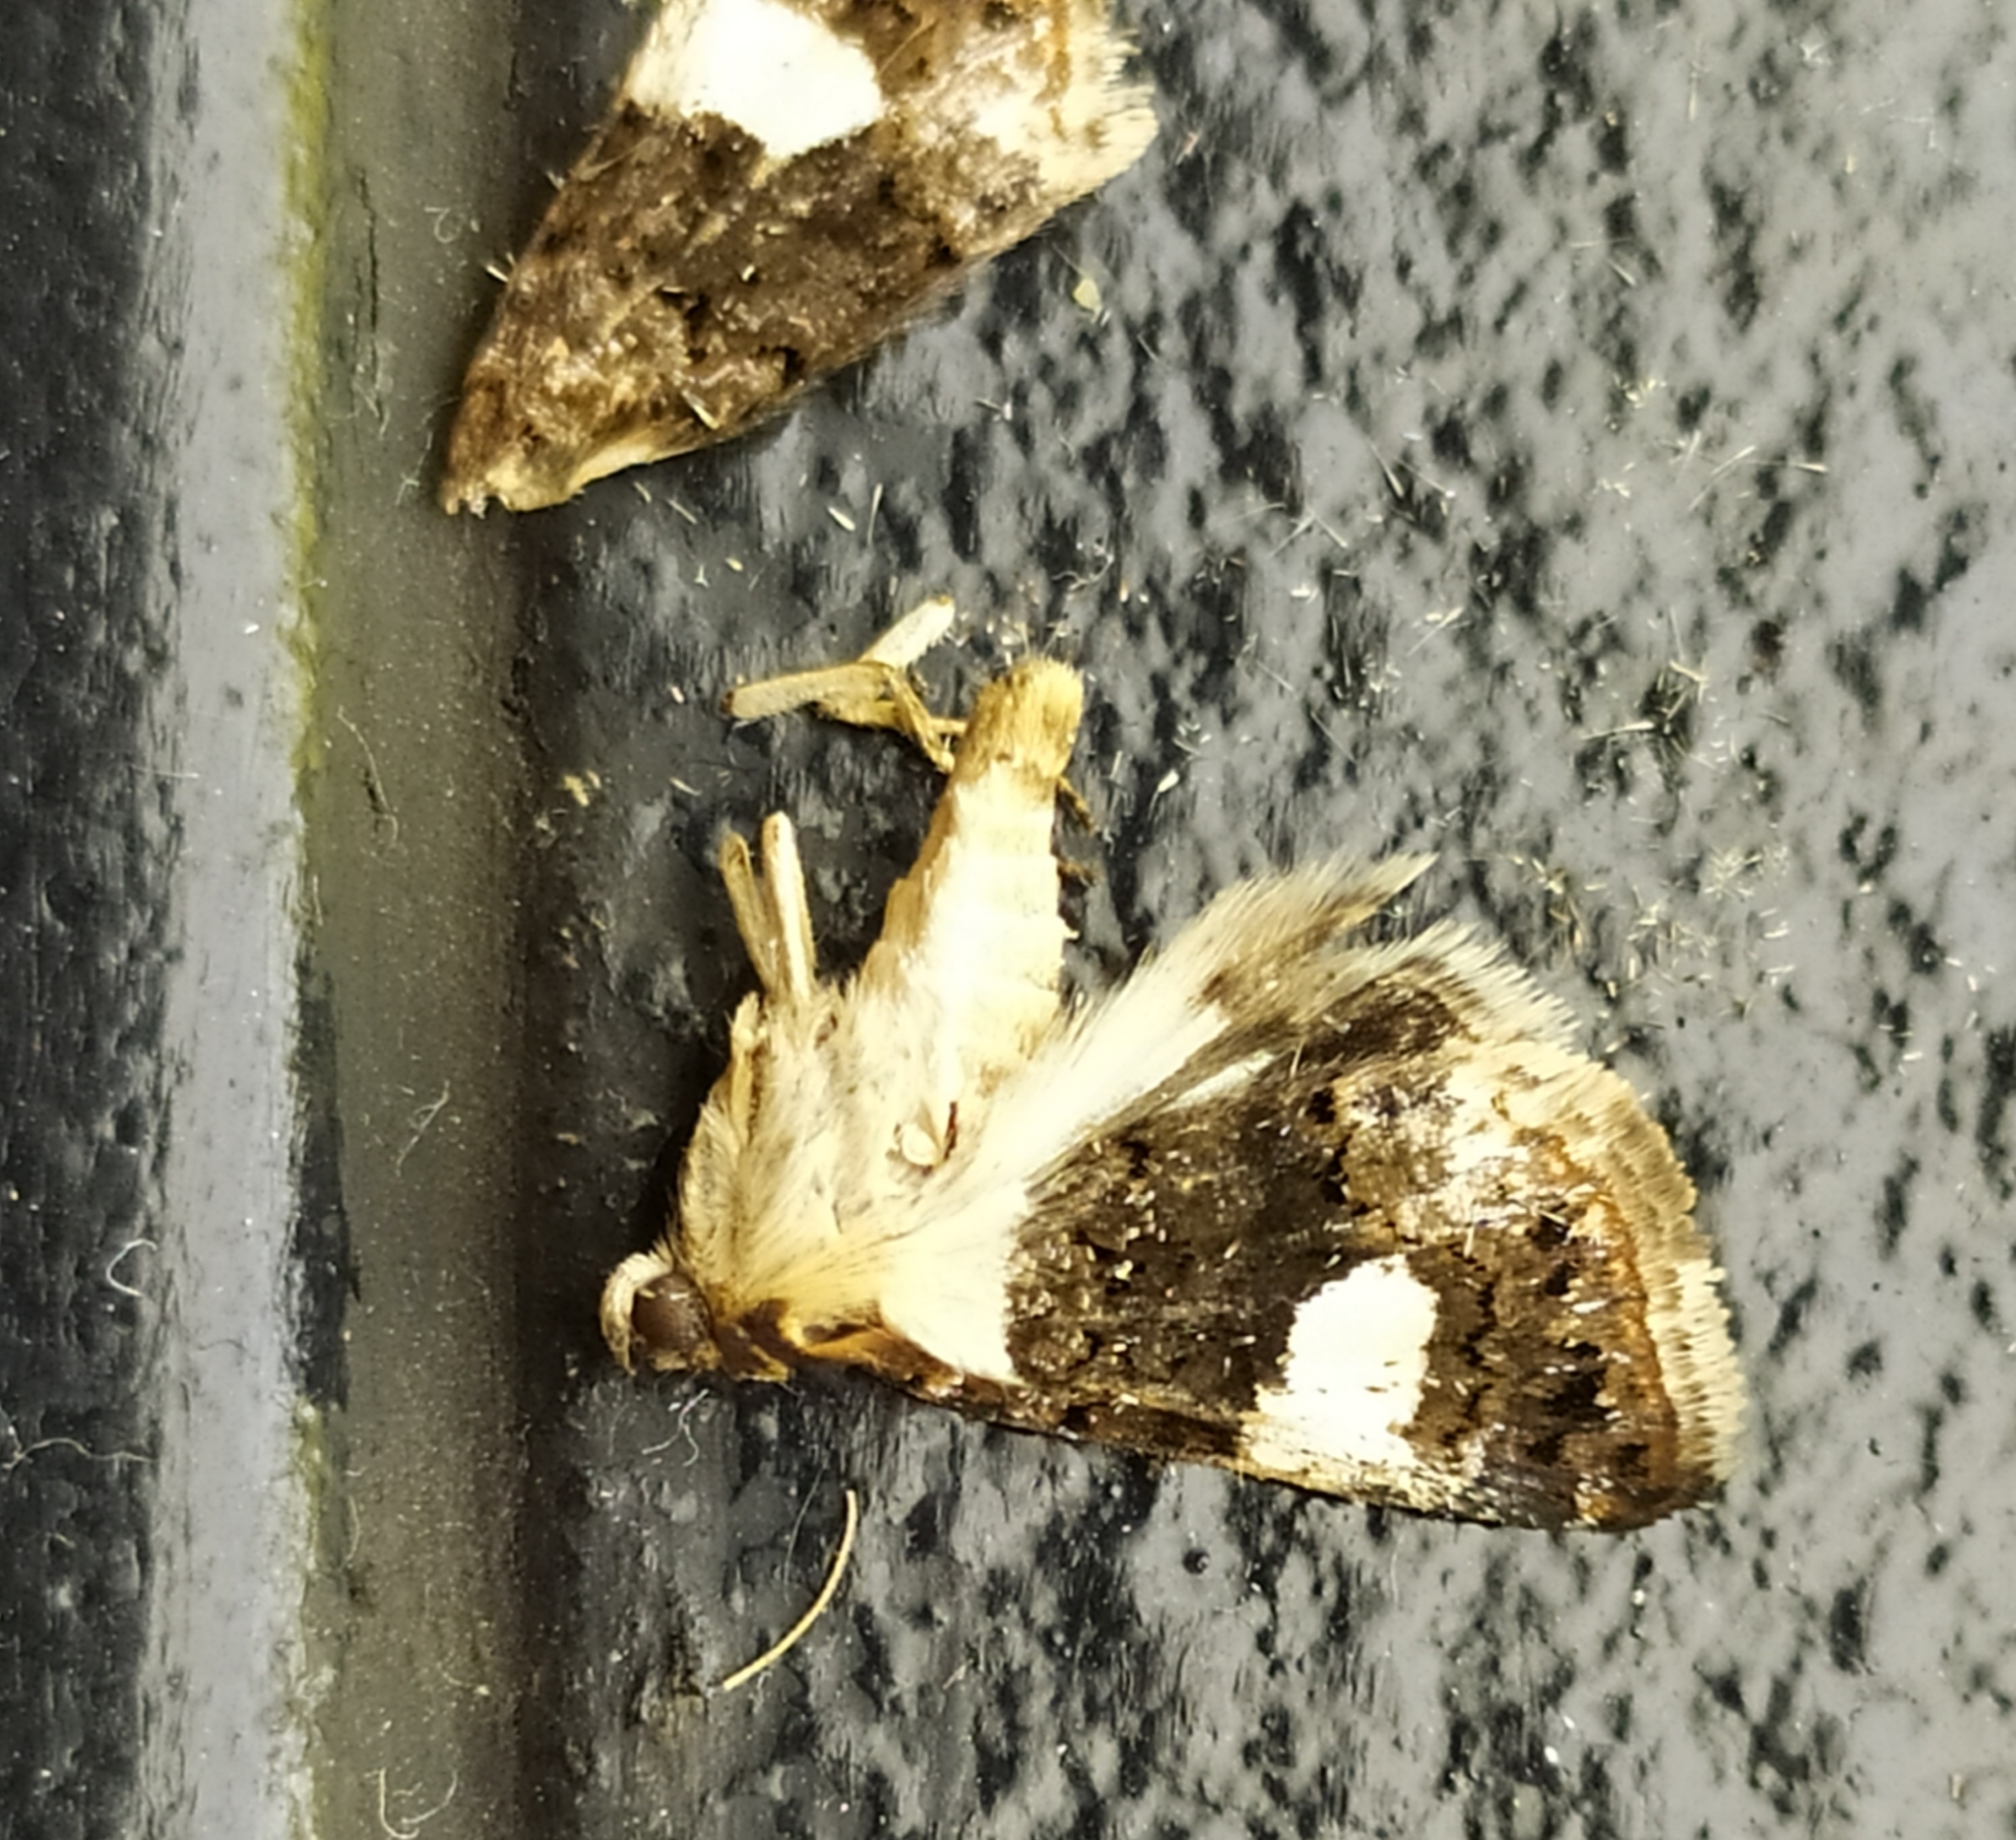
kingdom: Animalia
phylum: Arthropoda
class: Insecta
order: Lepidoptera
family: Erebidae
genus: Tyta
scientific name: Tyta luctuosa
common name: Four-spotted
